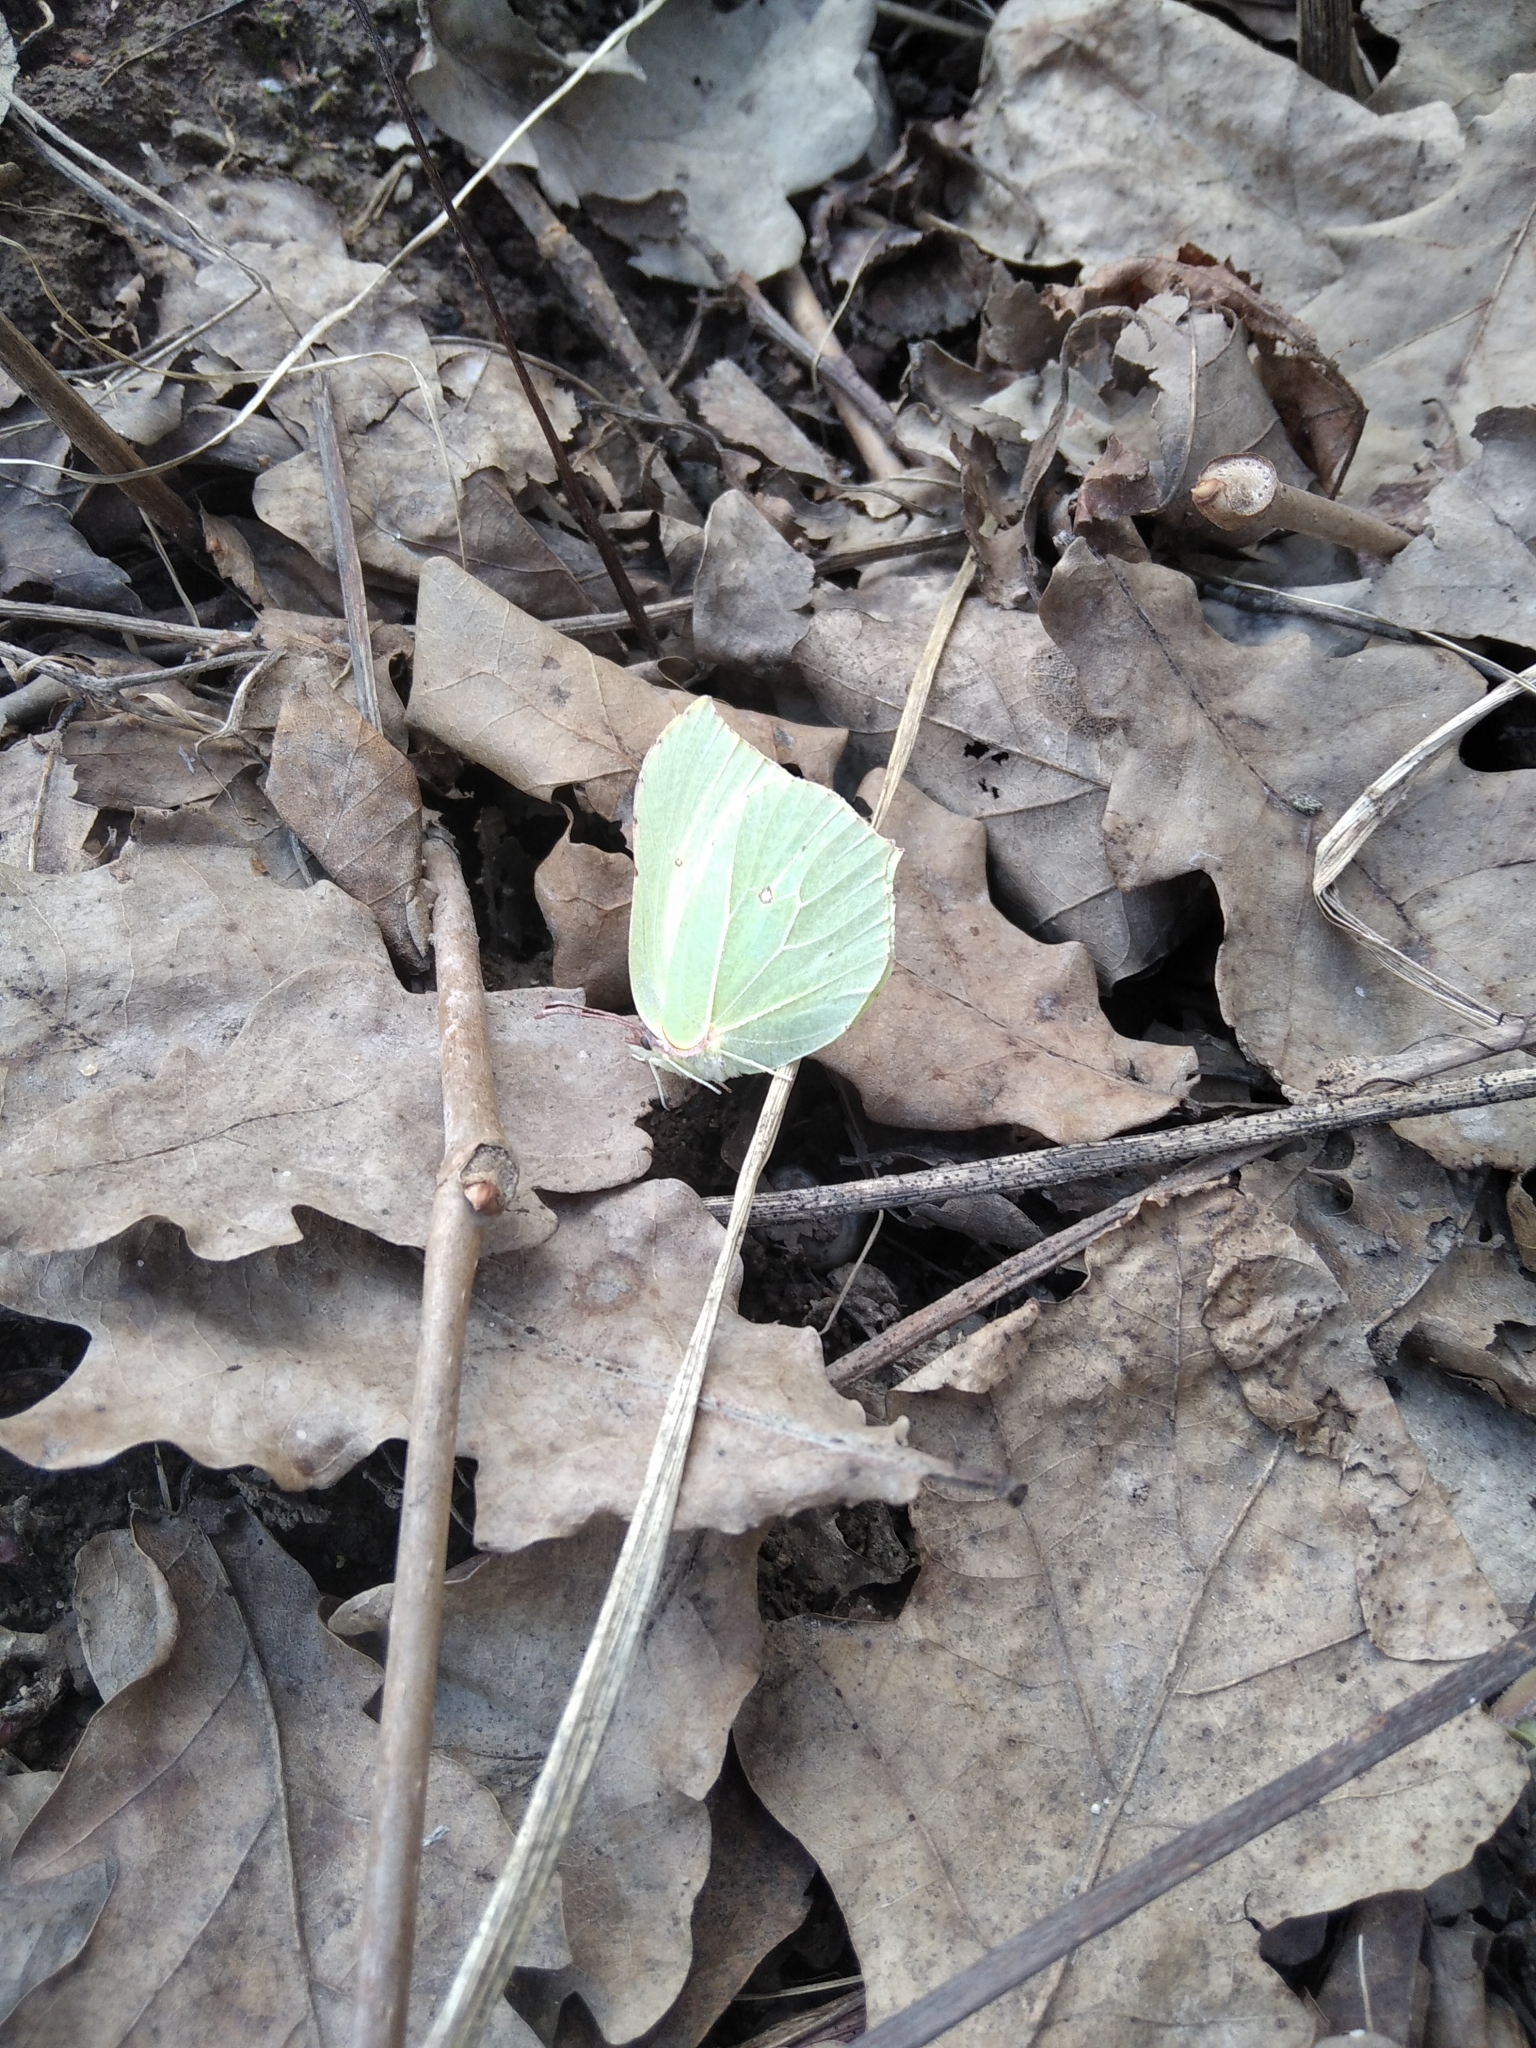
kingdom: Animalia
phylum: Arthropoda
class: Insecta
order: Lepidoptera
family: Pieridae
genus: Gonepteryx
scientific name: Gonepteryx rhamni
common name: Brimstone
